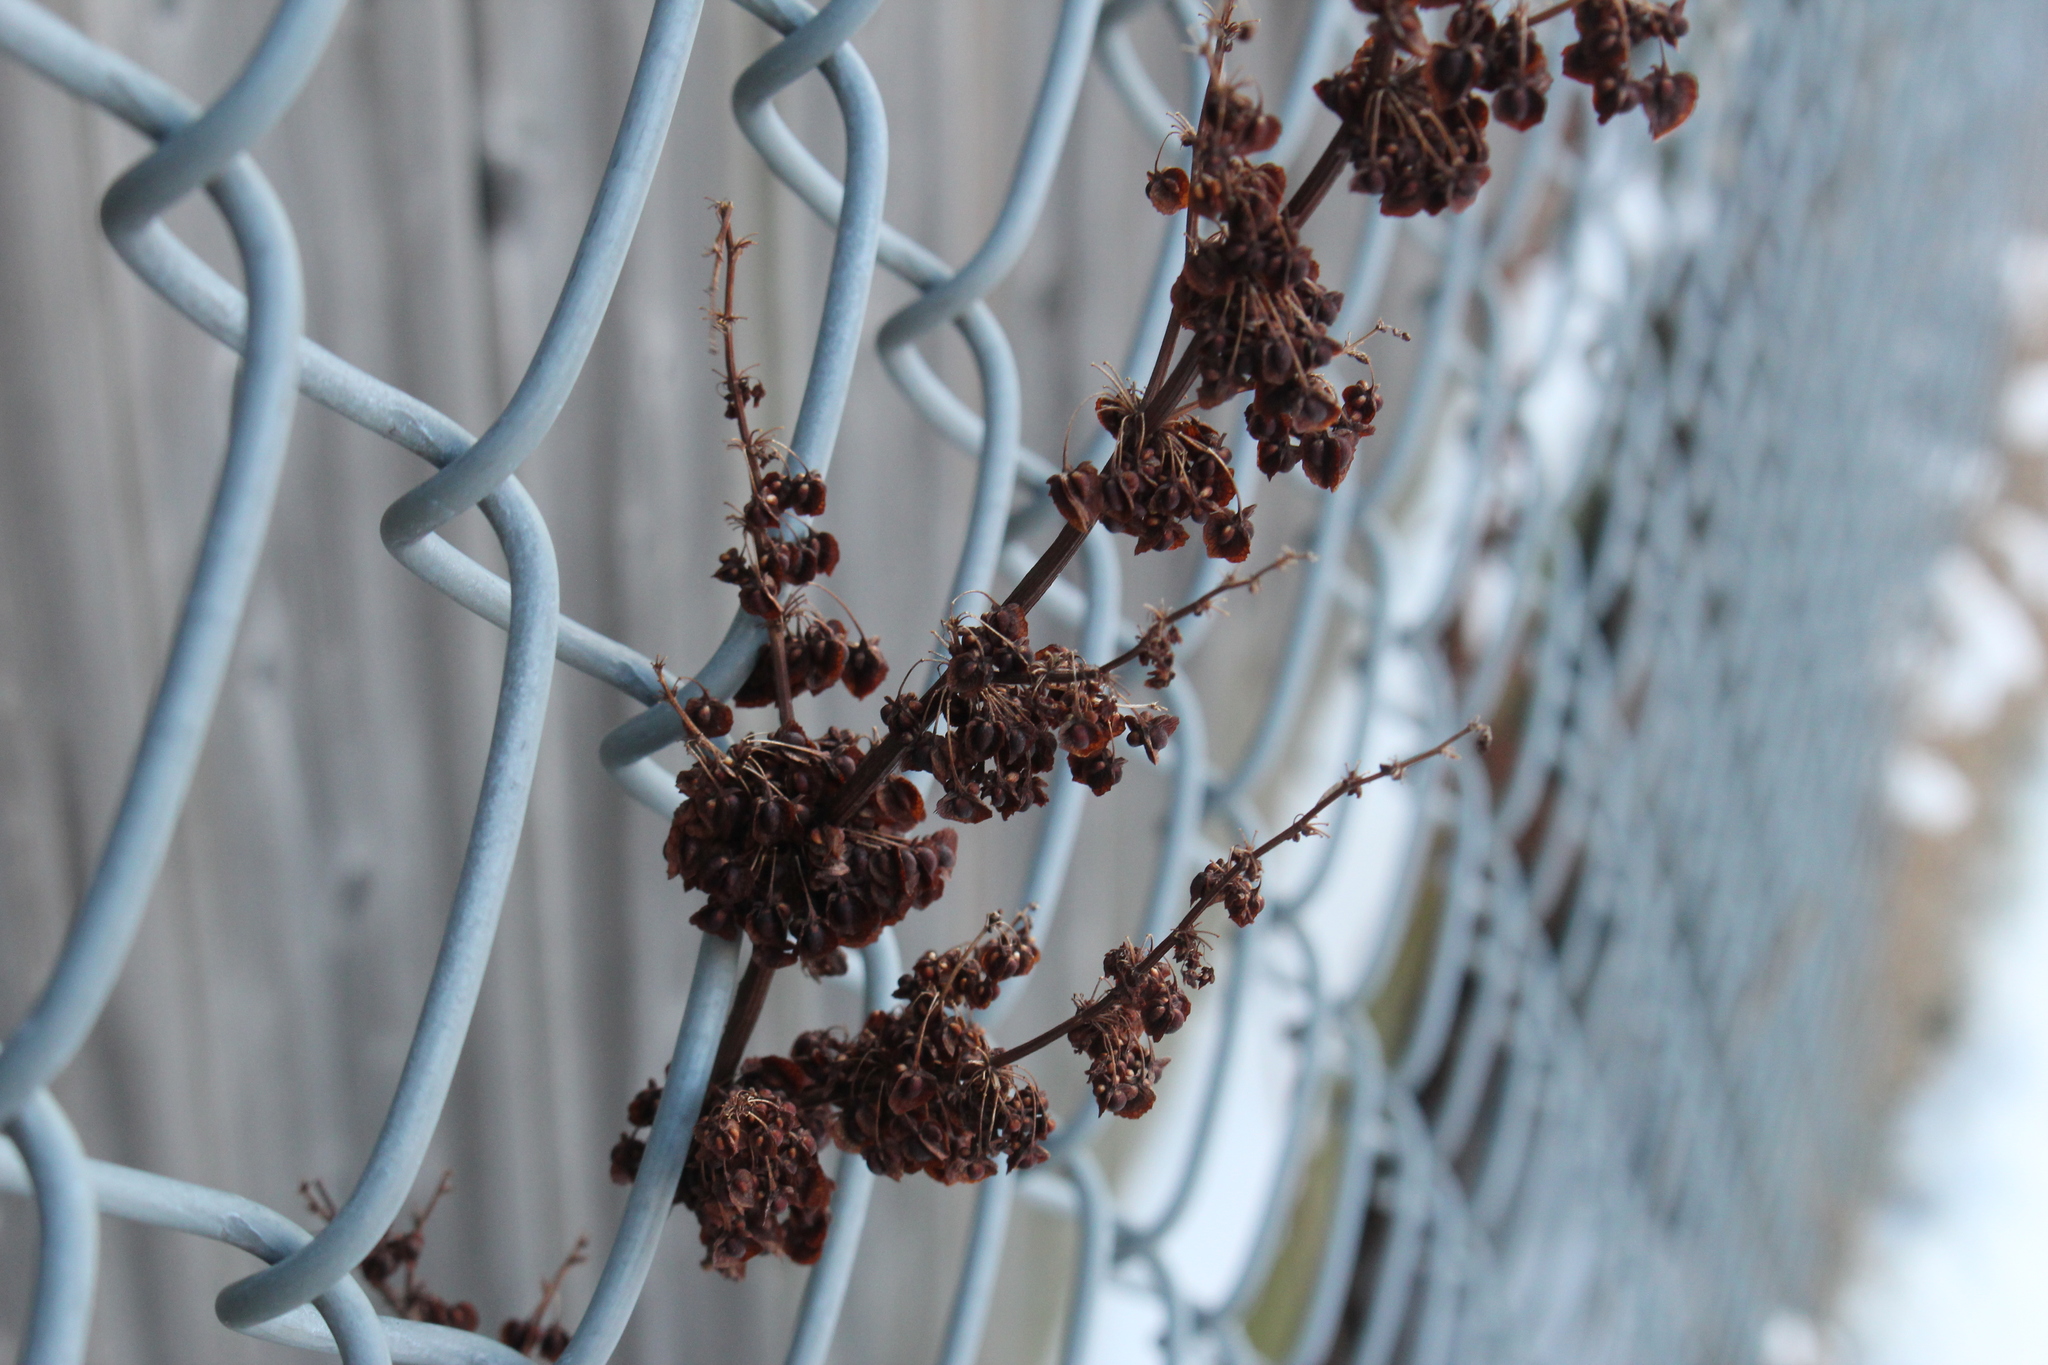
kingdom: Plantae
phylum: Tracheophyta
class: Magnoliopsida
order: Caryophyllales
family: Polygonaceae
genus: Rumex
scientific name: Rumex crispus
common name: Curled dock
